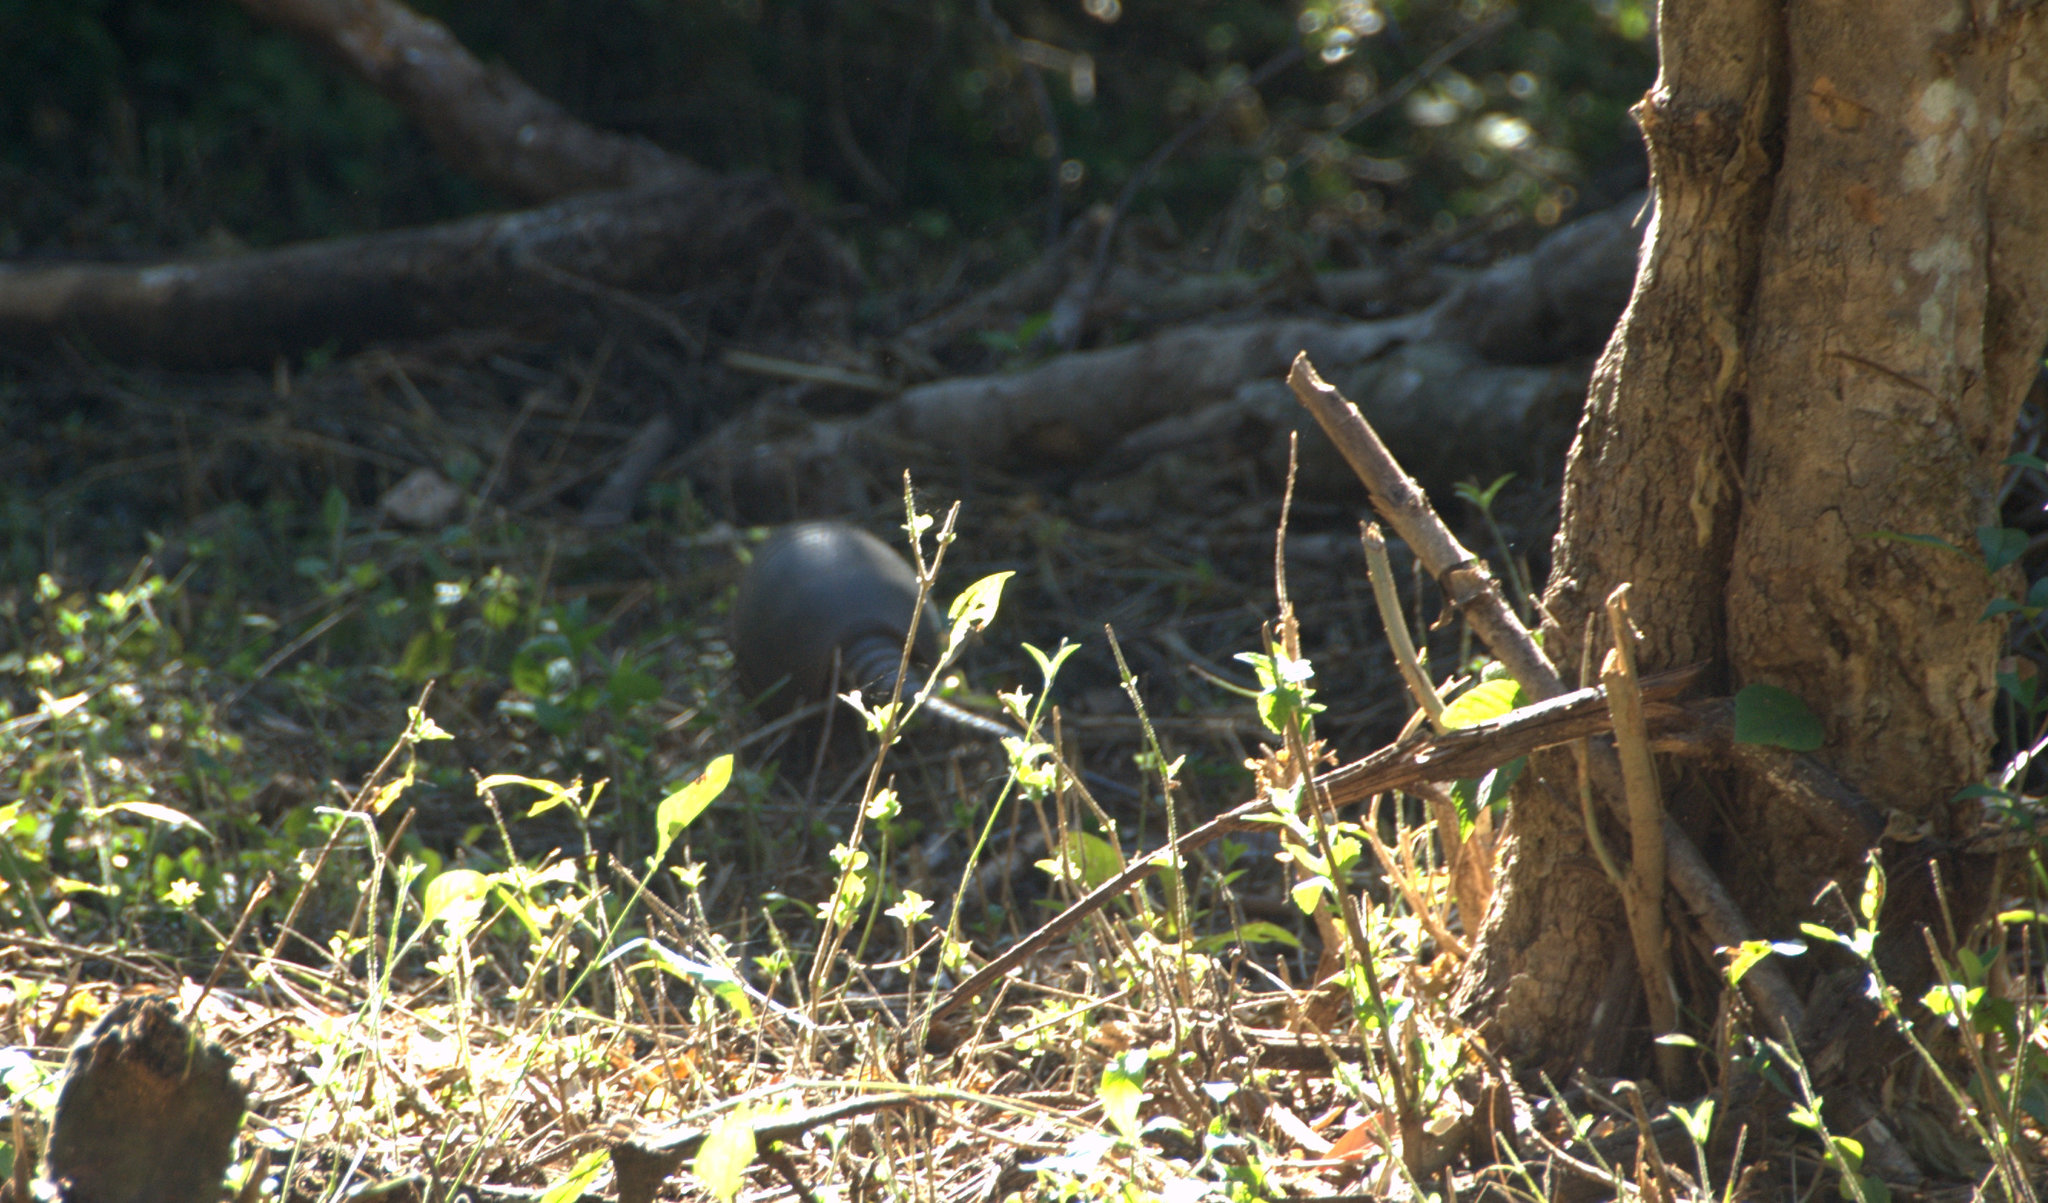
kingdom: Animalia
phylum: Chordata
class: Mammalia
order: Cingulata
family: Dasypodidae
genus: Dasypus
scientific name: Dasypus novemcinctus
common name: Nine-banded armadillo
